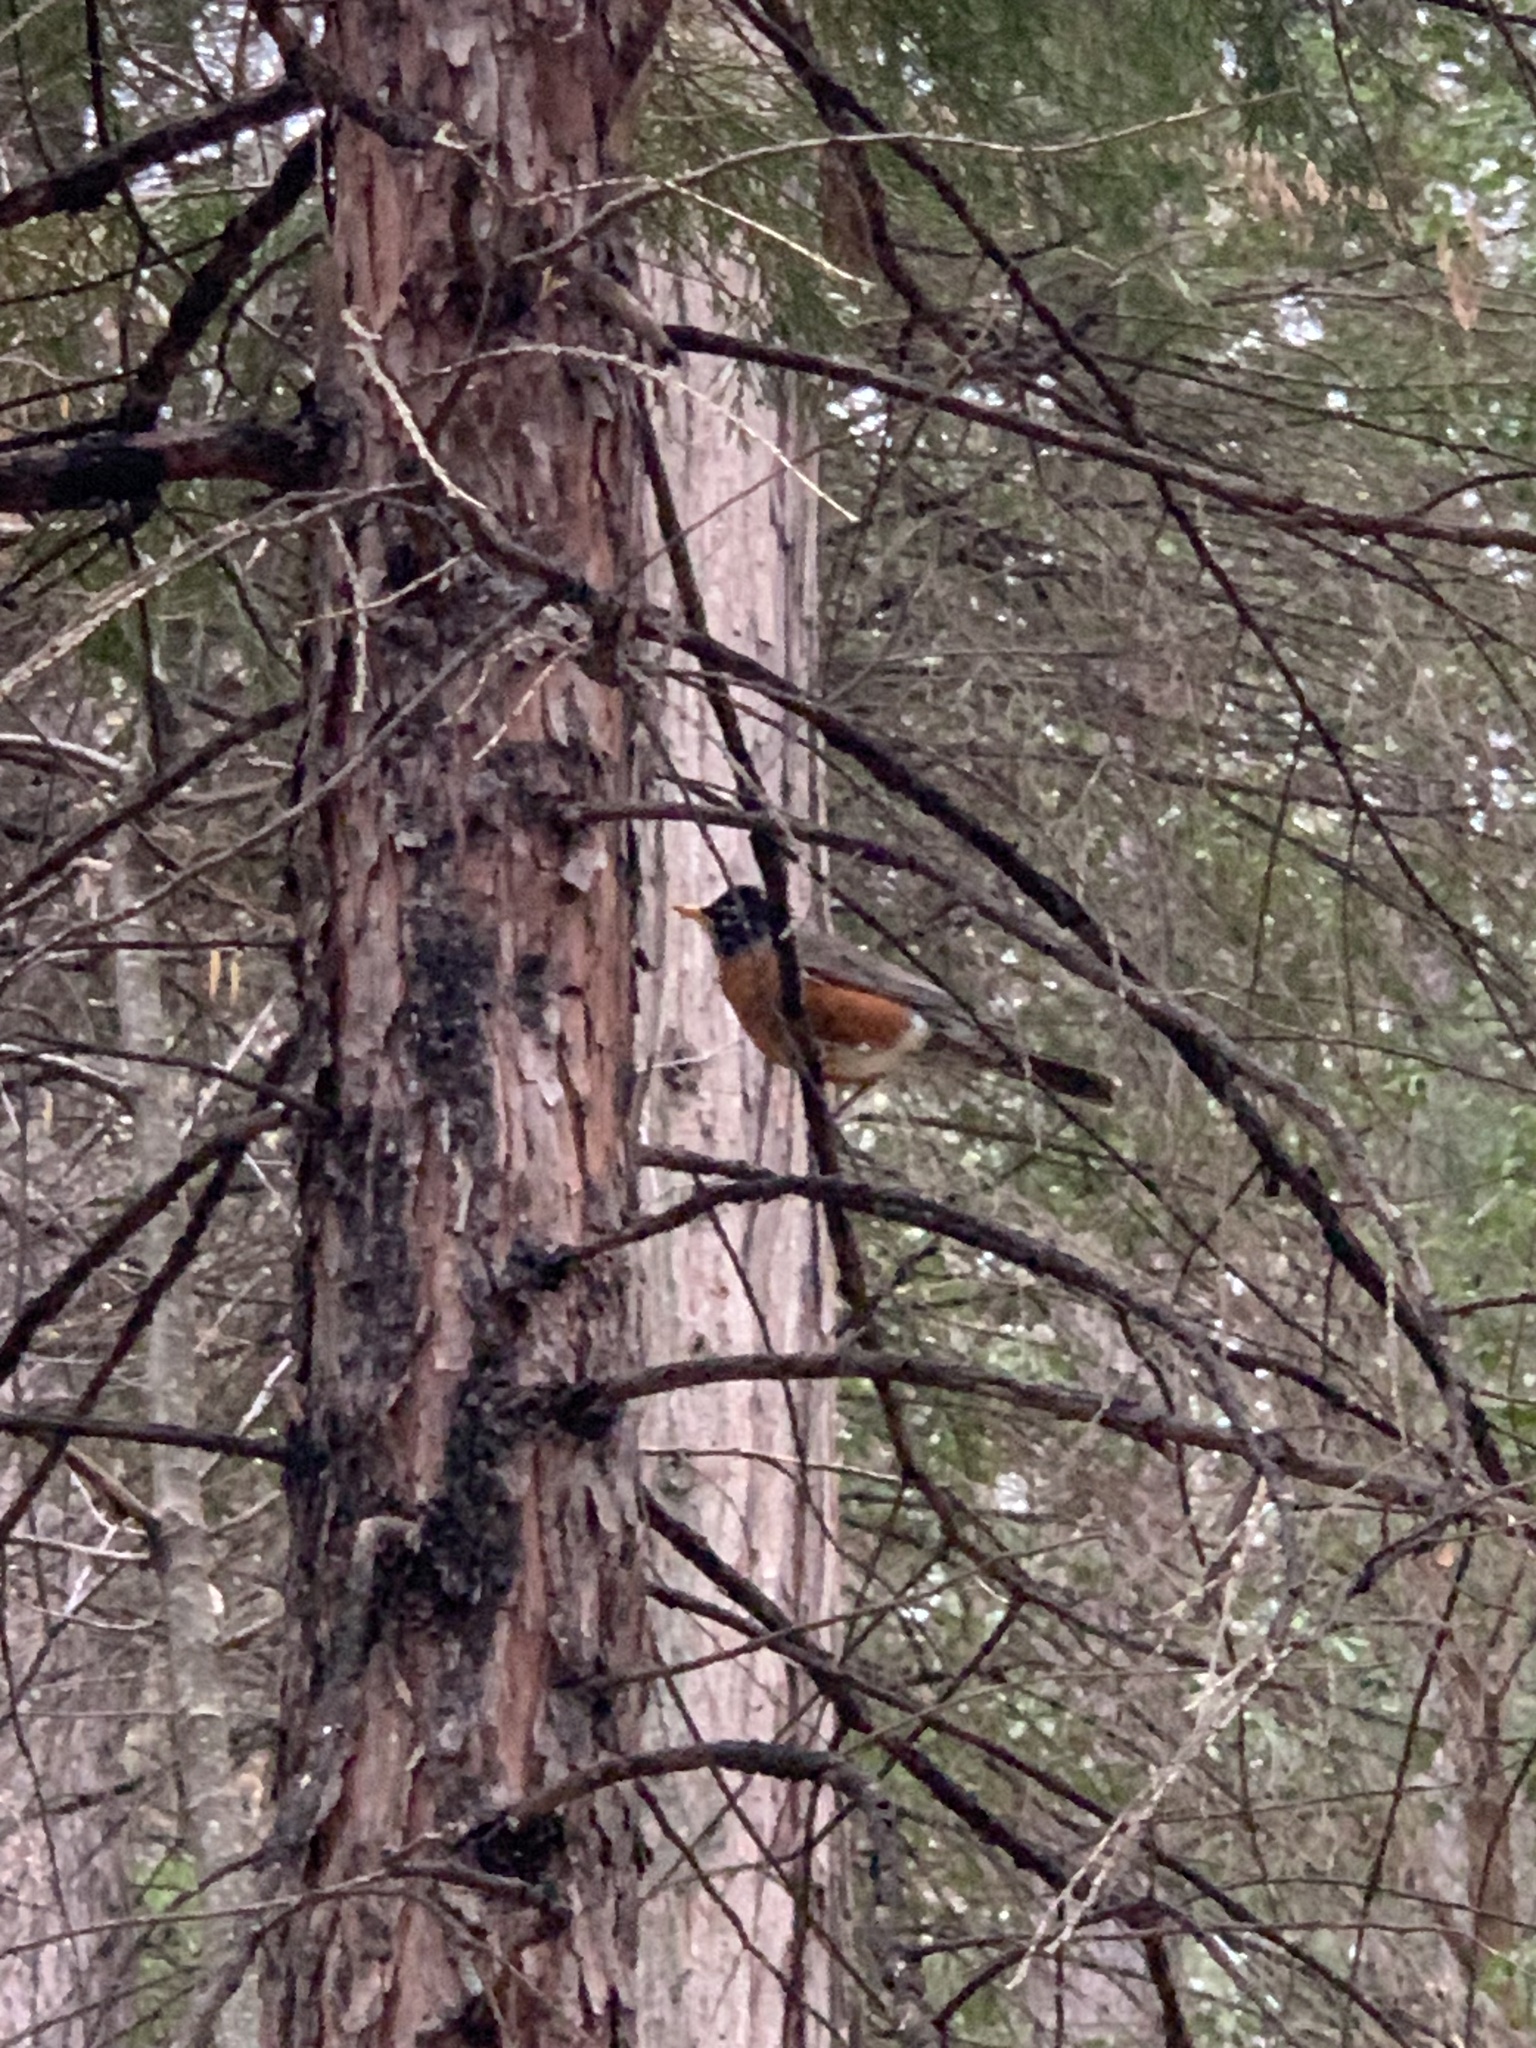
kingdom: Animalia
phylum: Chordata
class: Aves
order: Passeriformes
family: Turdidae
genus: Turdus
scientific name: Turdus migratorius
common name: American robin
